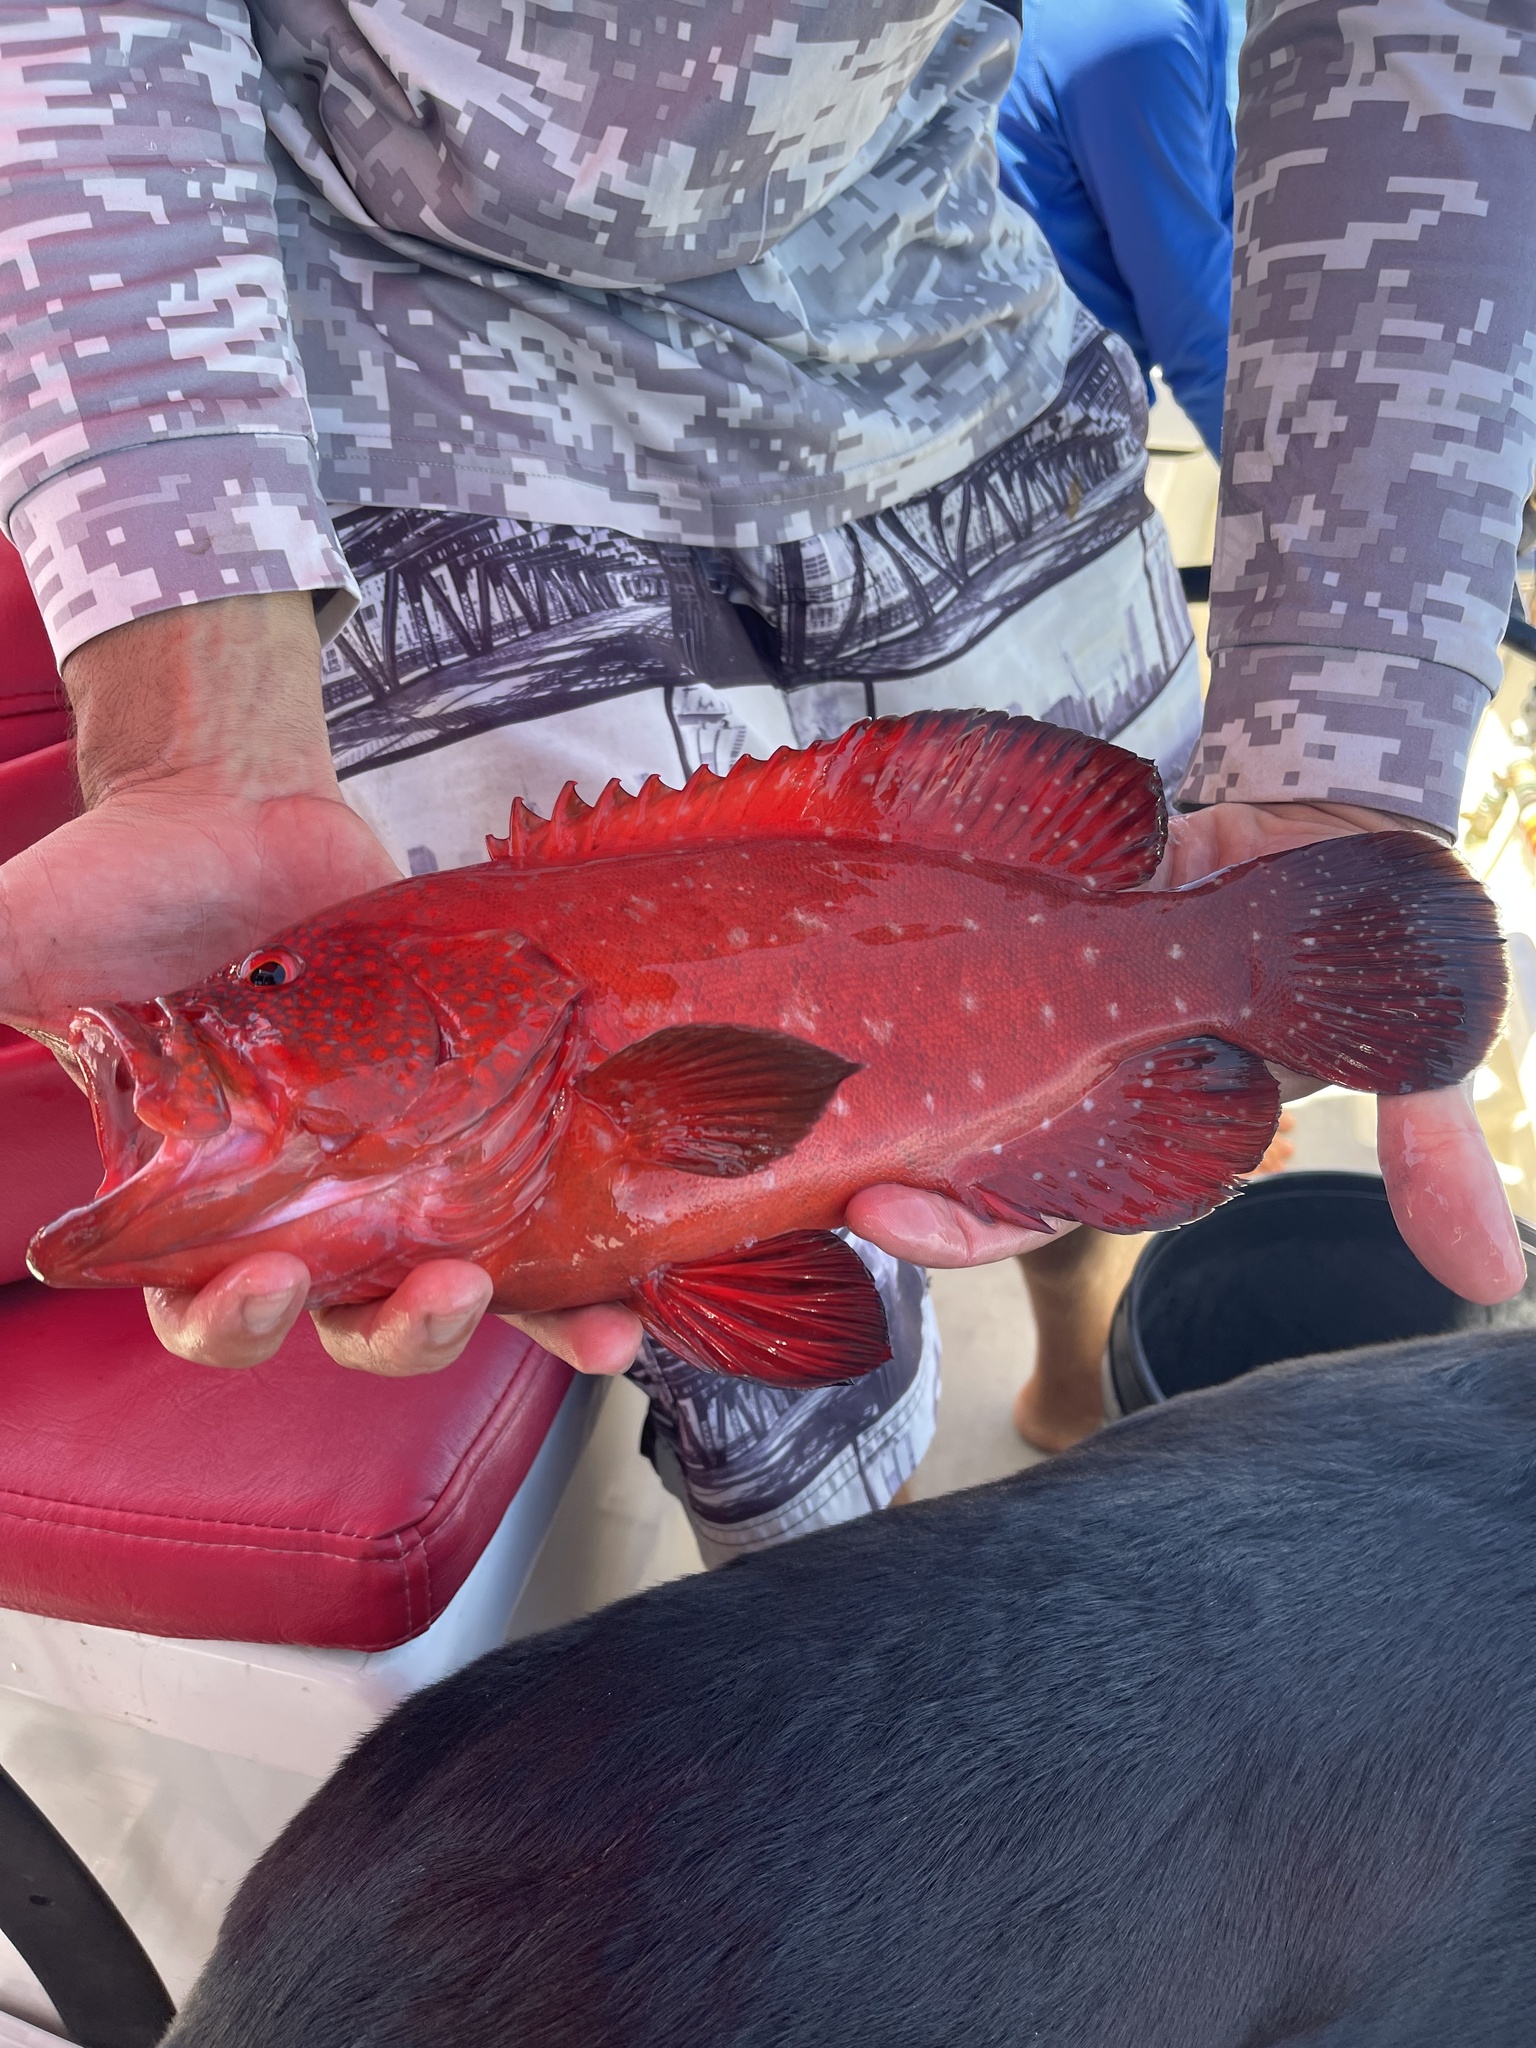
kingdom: Animalia
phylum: Chordata
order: Perciformes
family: Serranidae
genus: Cephalopholis
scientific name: Cephalopholis sonnerati
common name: Tomato hind
